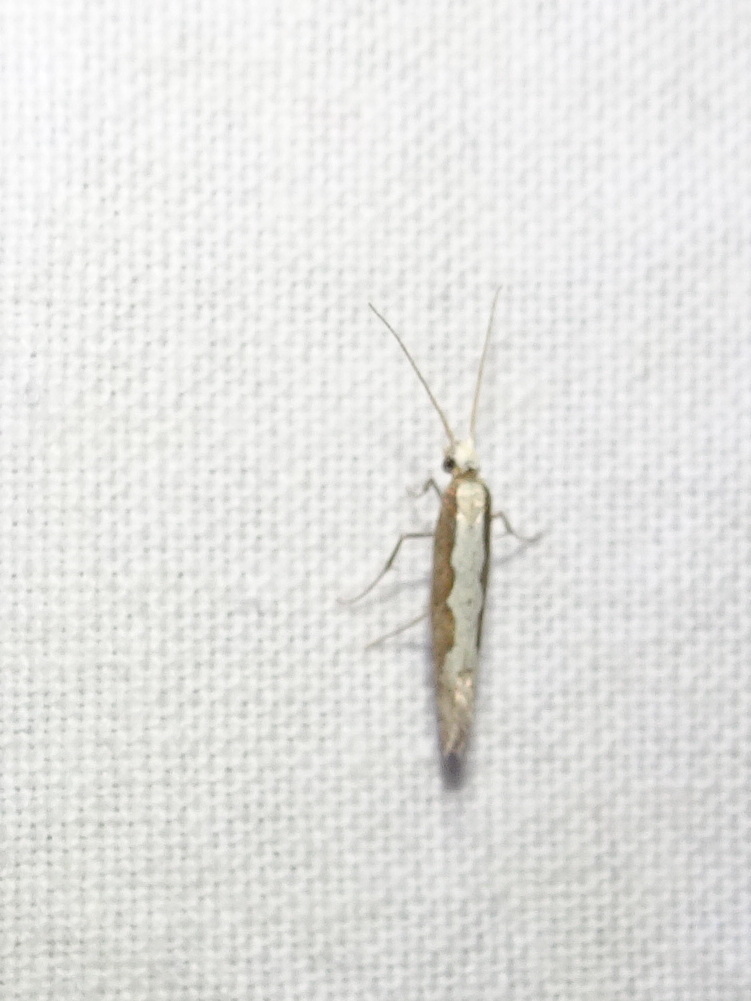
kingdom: Animalia
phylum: Arthropoda
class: Insecta
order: Lepidoptera
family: Plutellidae
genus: Plutella
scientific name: Plutella xylostella
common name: Diamond-back moth
